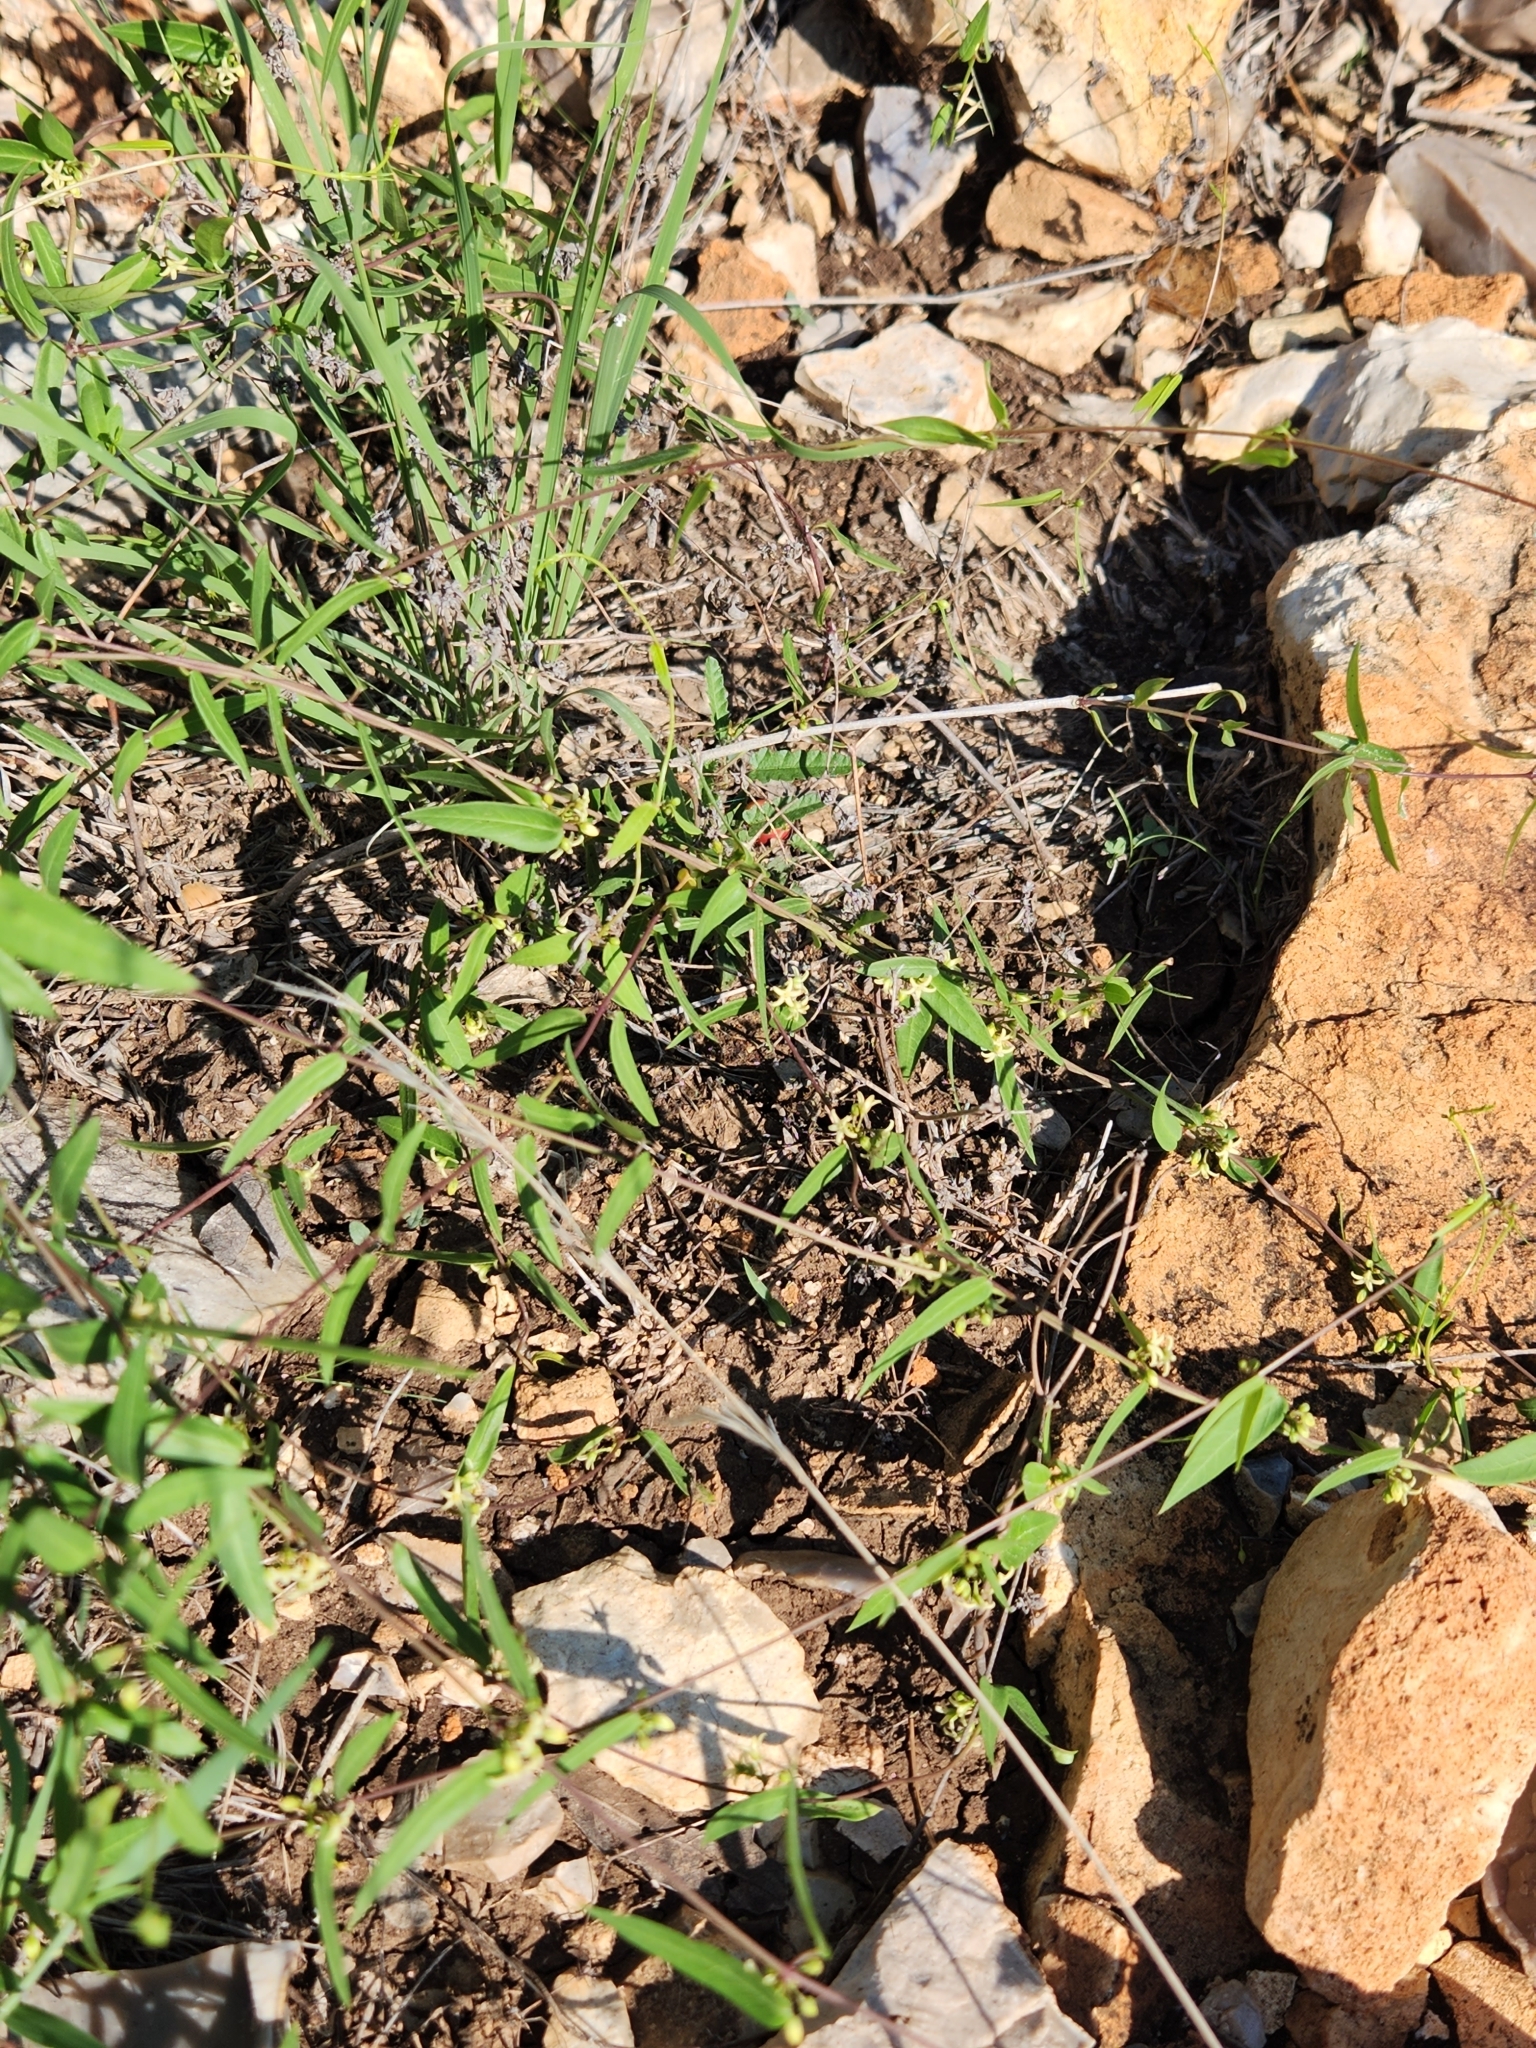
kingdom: Plantae
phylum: Tracheophyta
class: Magnoliopsida
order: Gentianales
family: Apocynaceae
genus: Metastelma
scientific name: Metastelma palmeri
